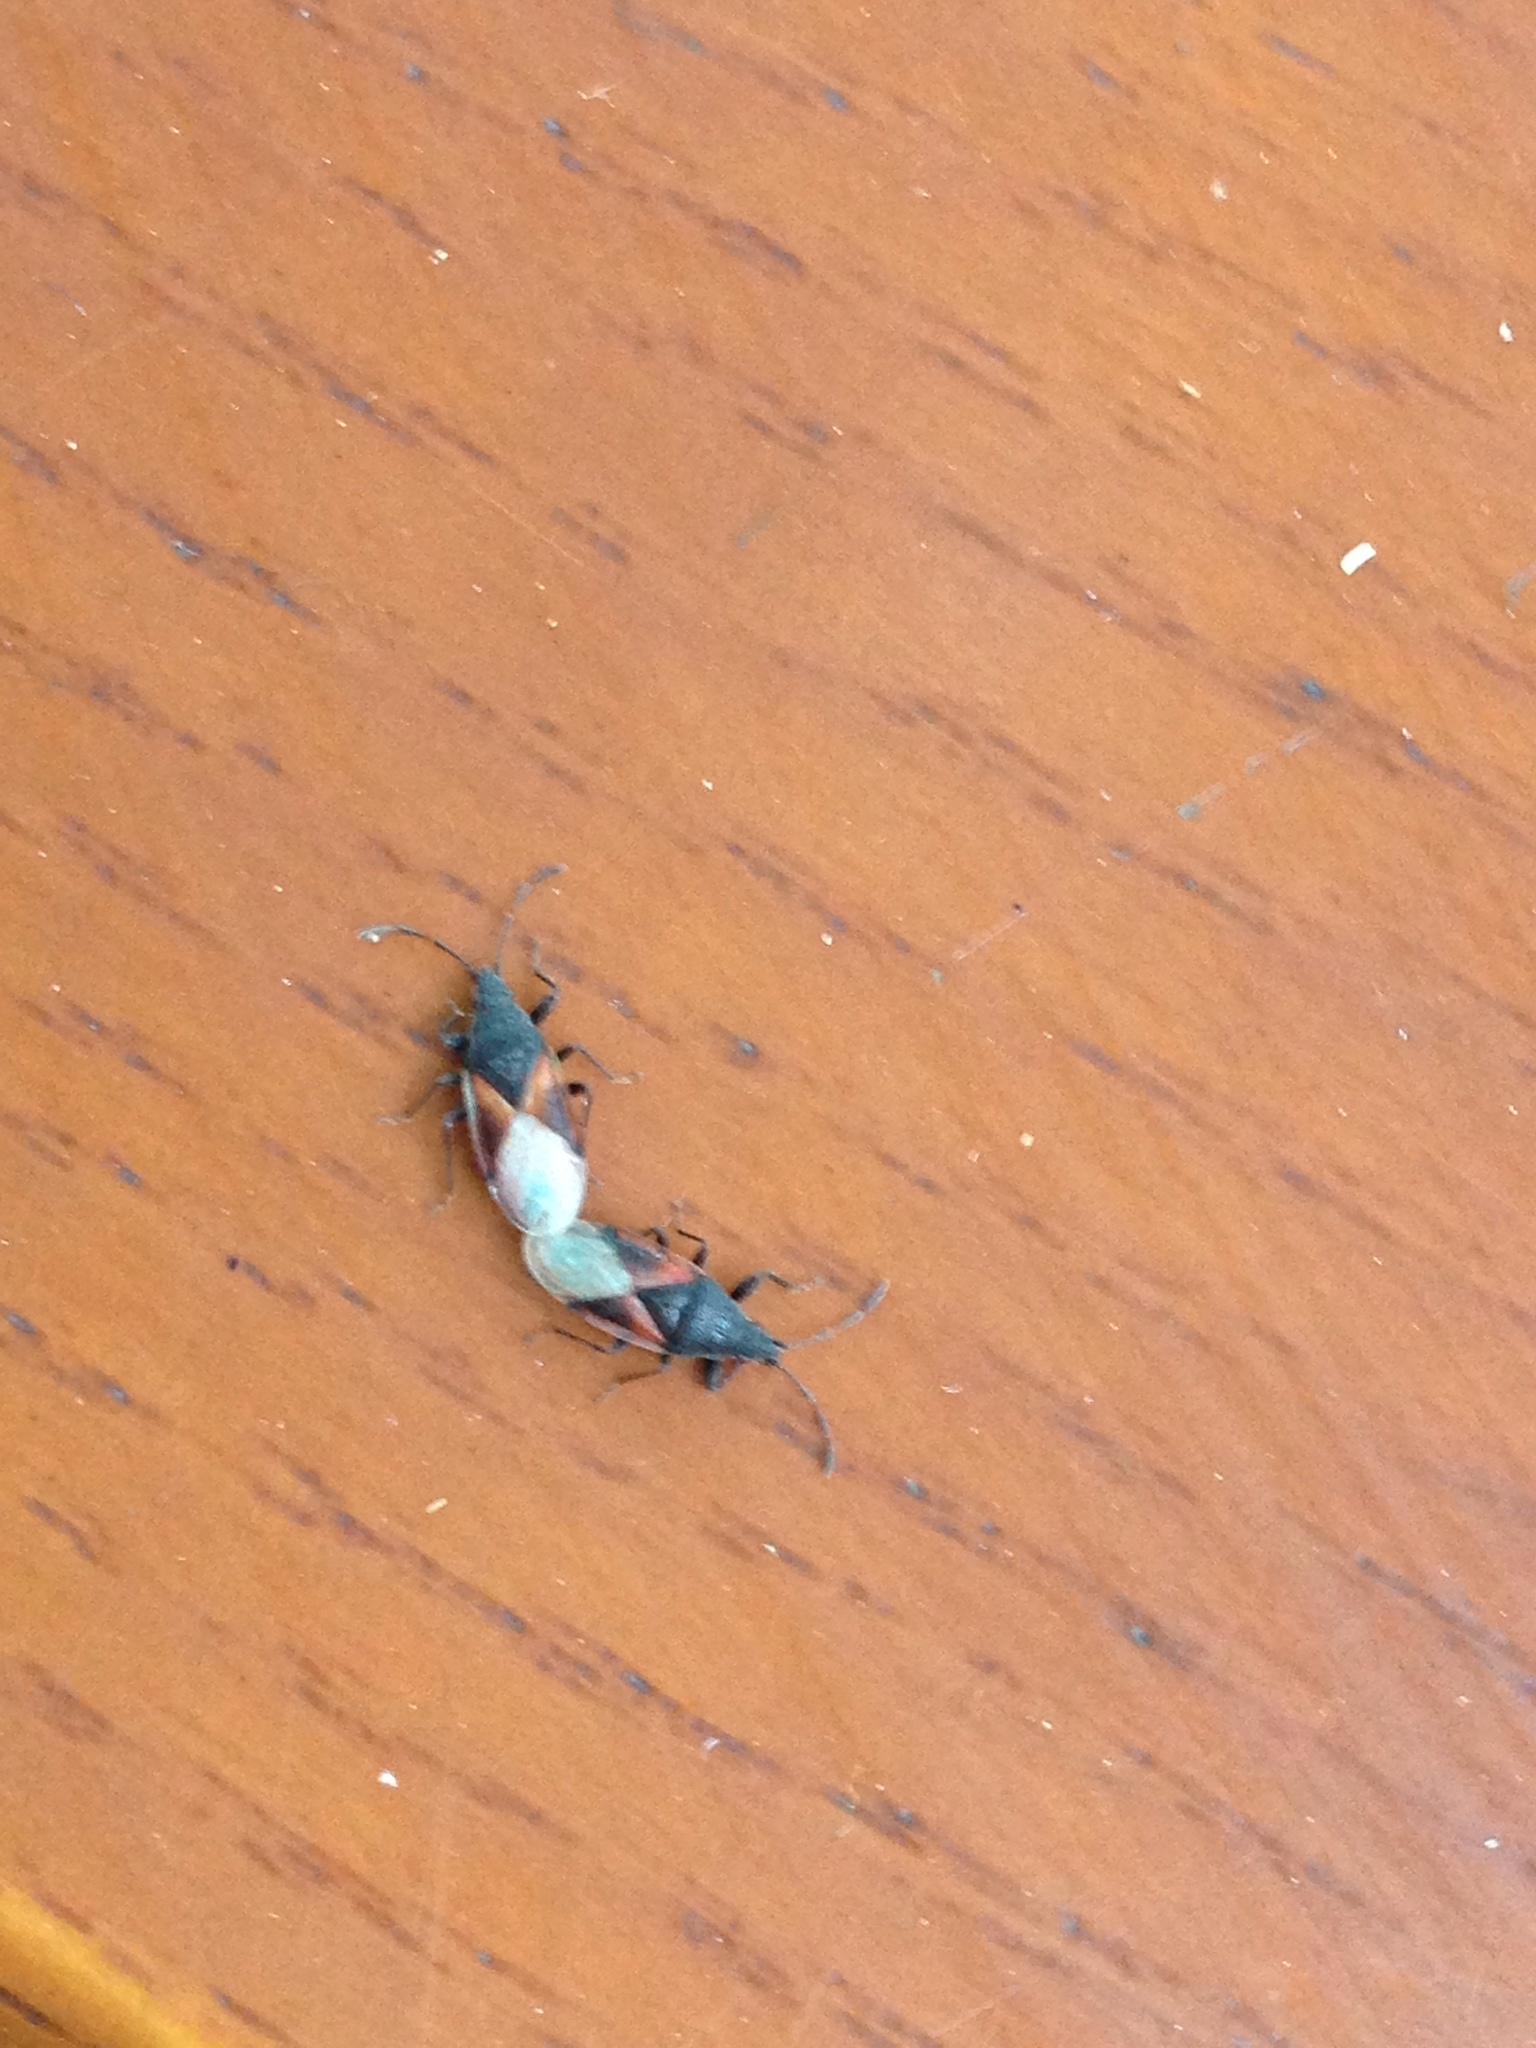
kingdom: Animalia
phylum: Arthropoda
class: Insecta
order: Hemiptera
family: Oxycarenidae
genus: Oxycarenus
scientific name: Oxycarenus lavaterae
